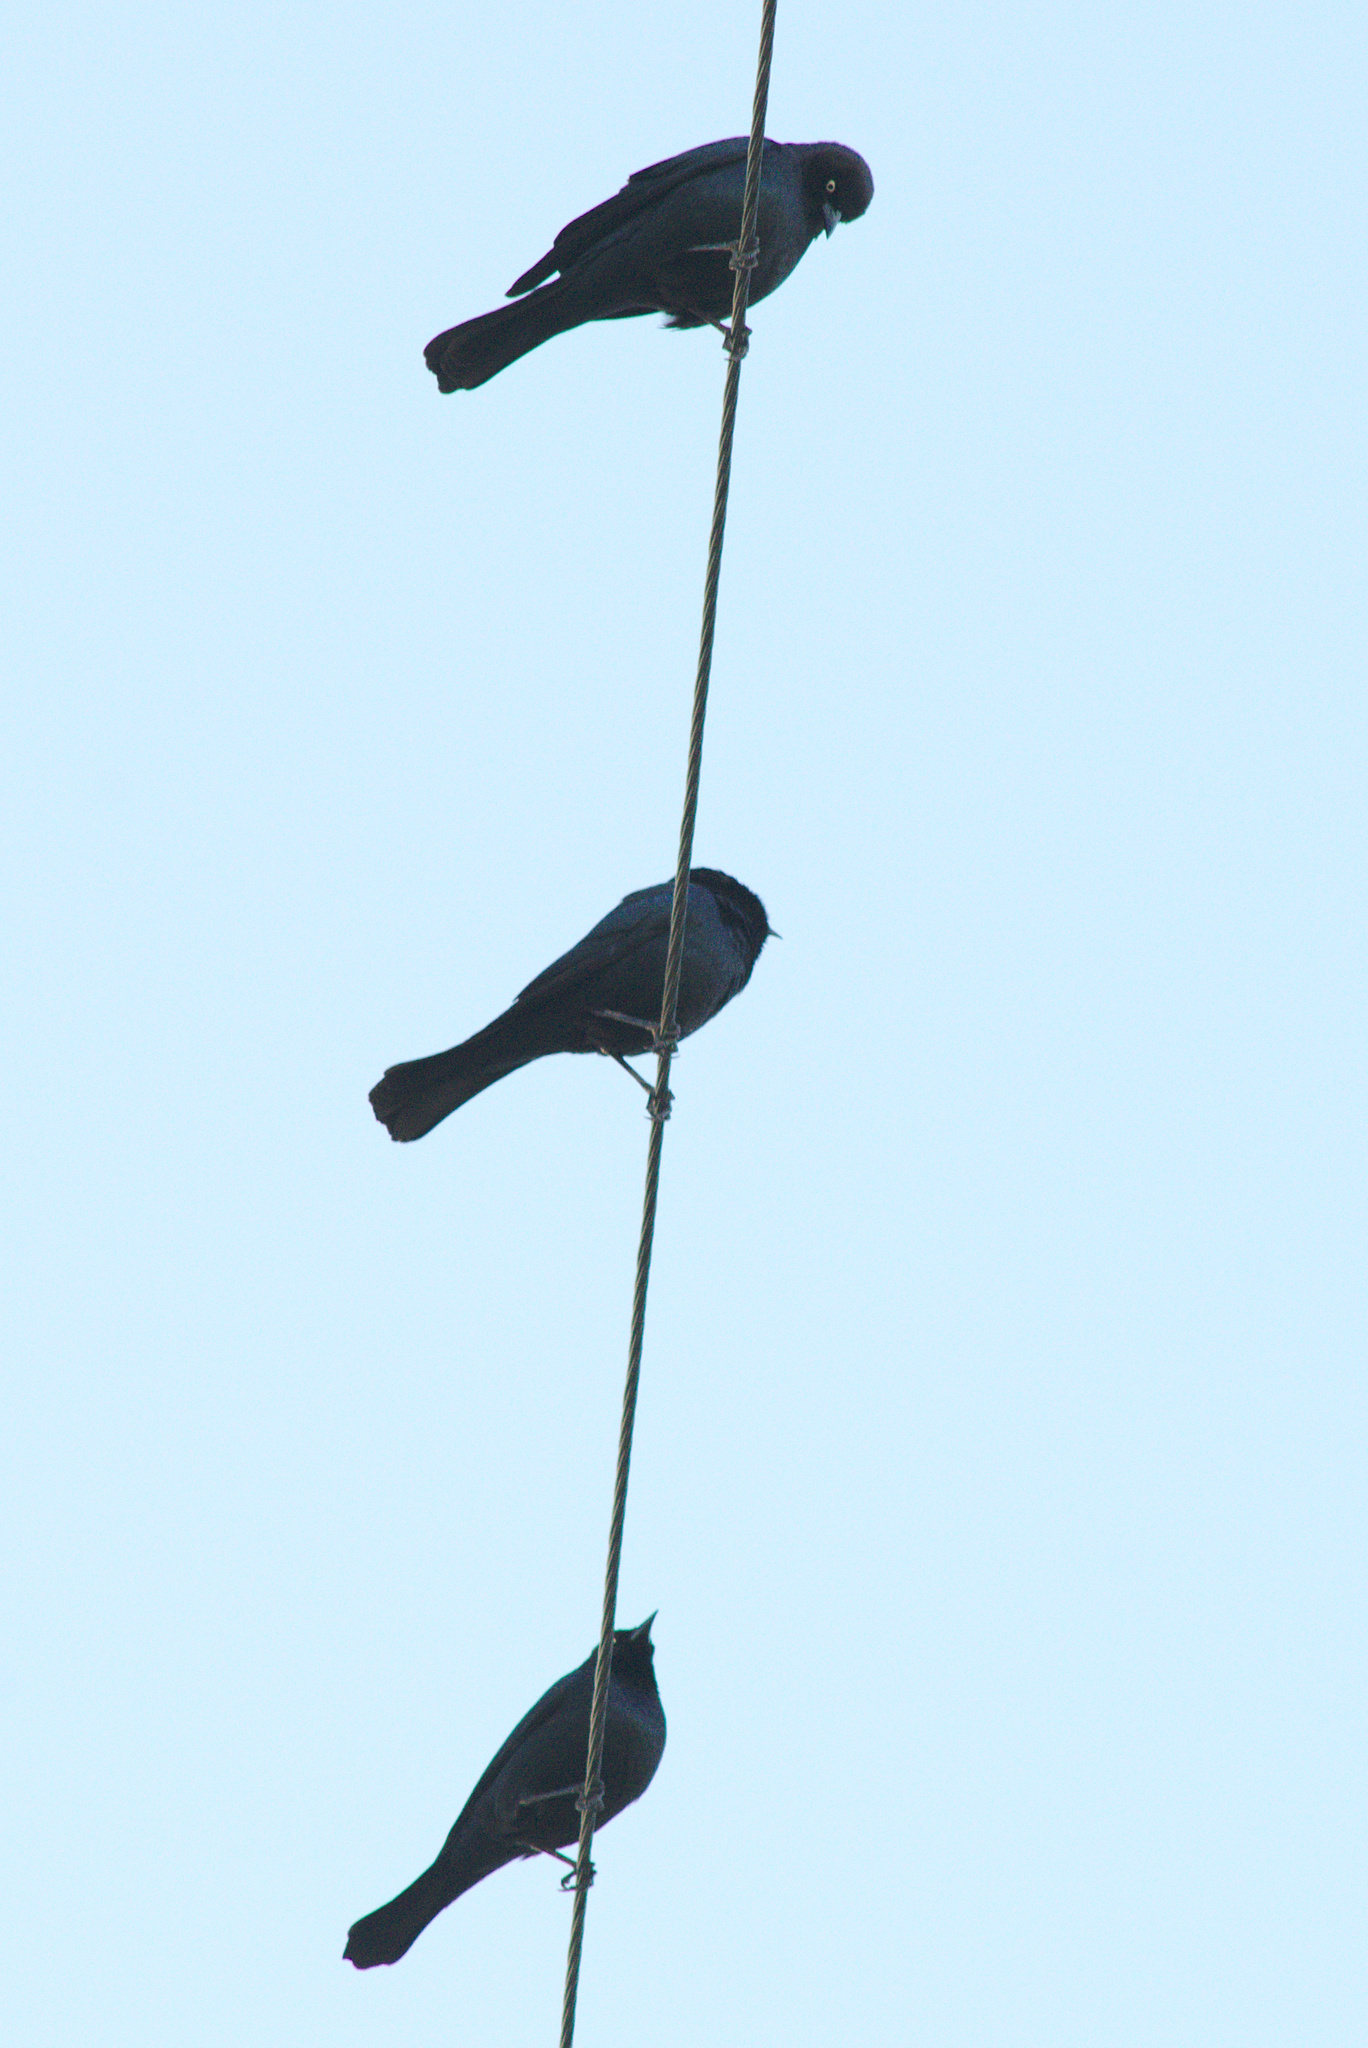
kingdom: Animalia
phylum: Chordata
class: Aves
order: Passeriformes
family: Icteridae
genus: Euphagus
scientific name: Euphagus cyanocephalus
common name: Brewer's blackbird
